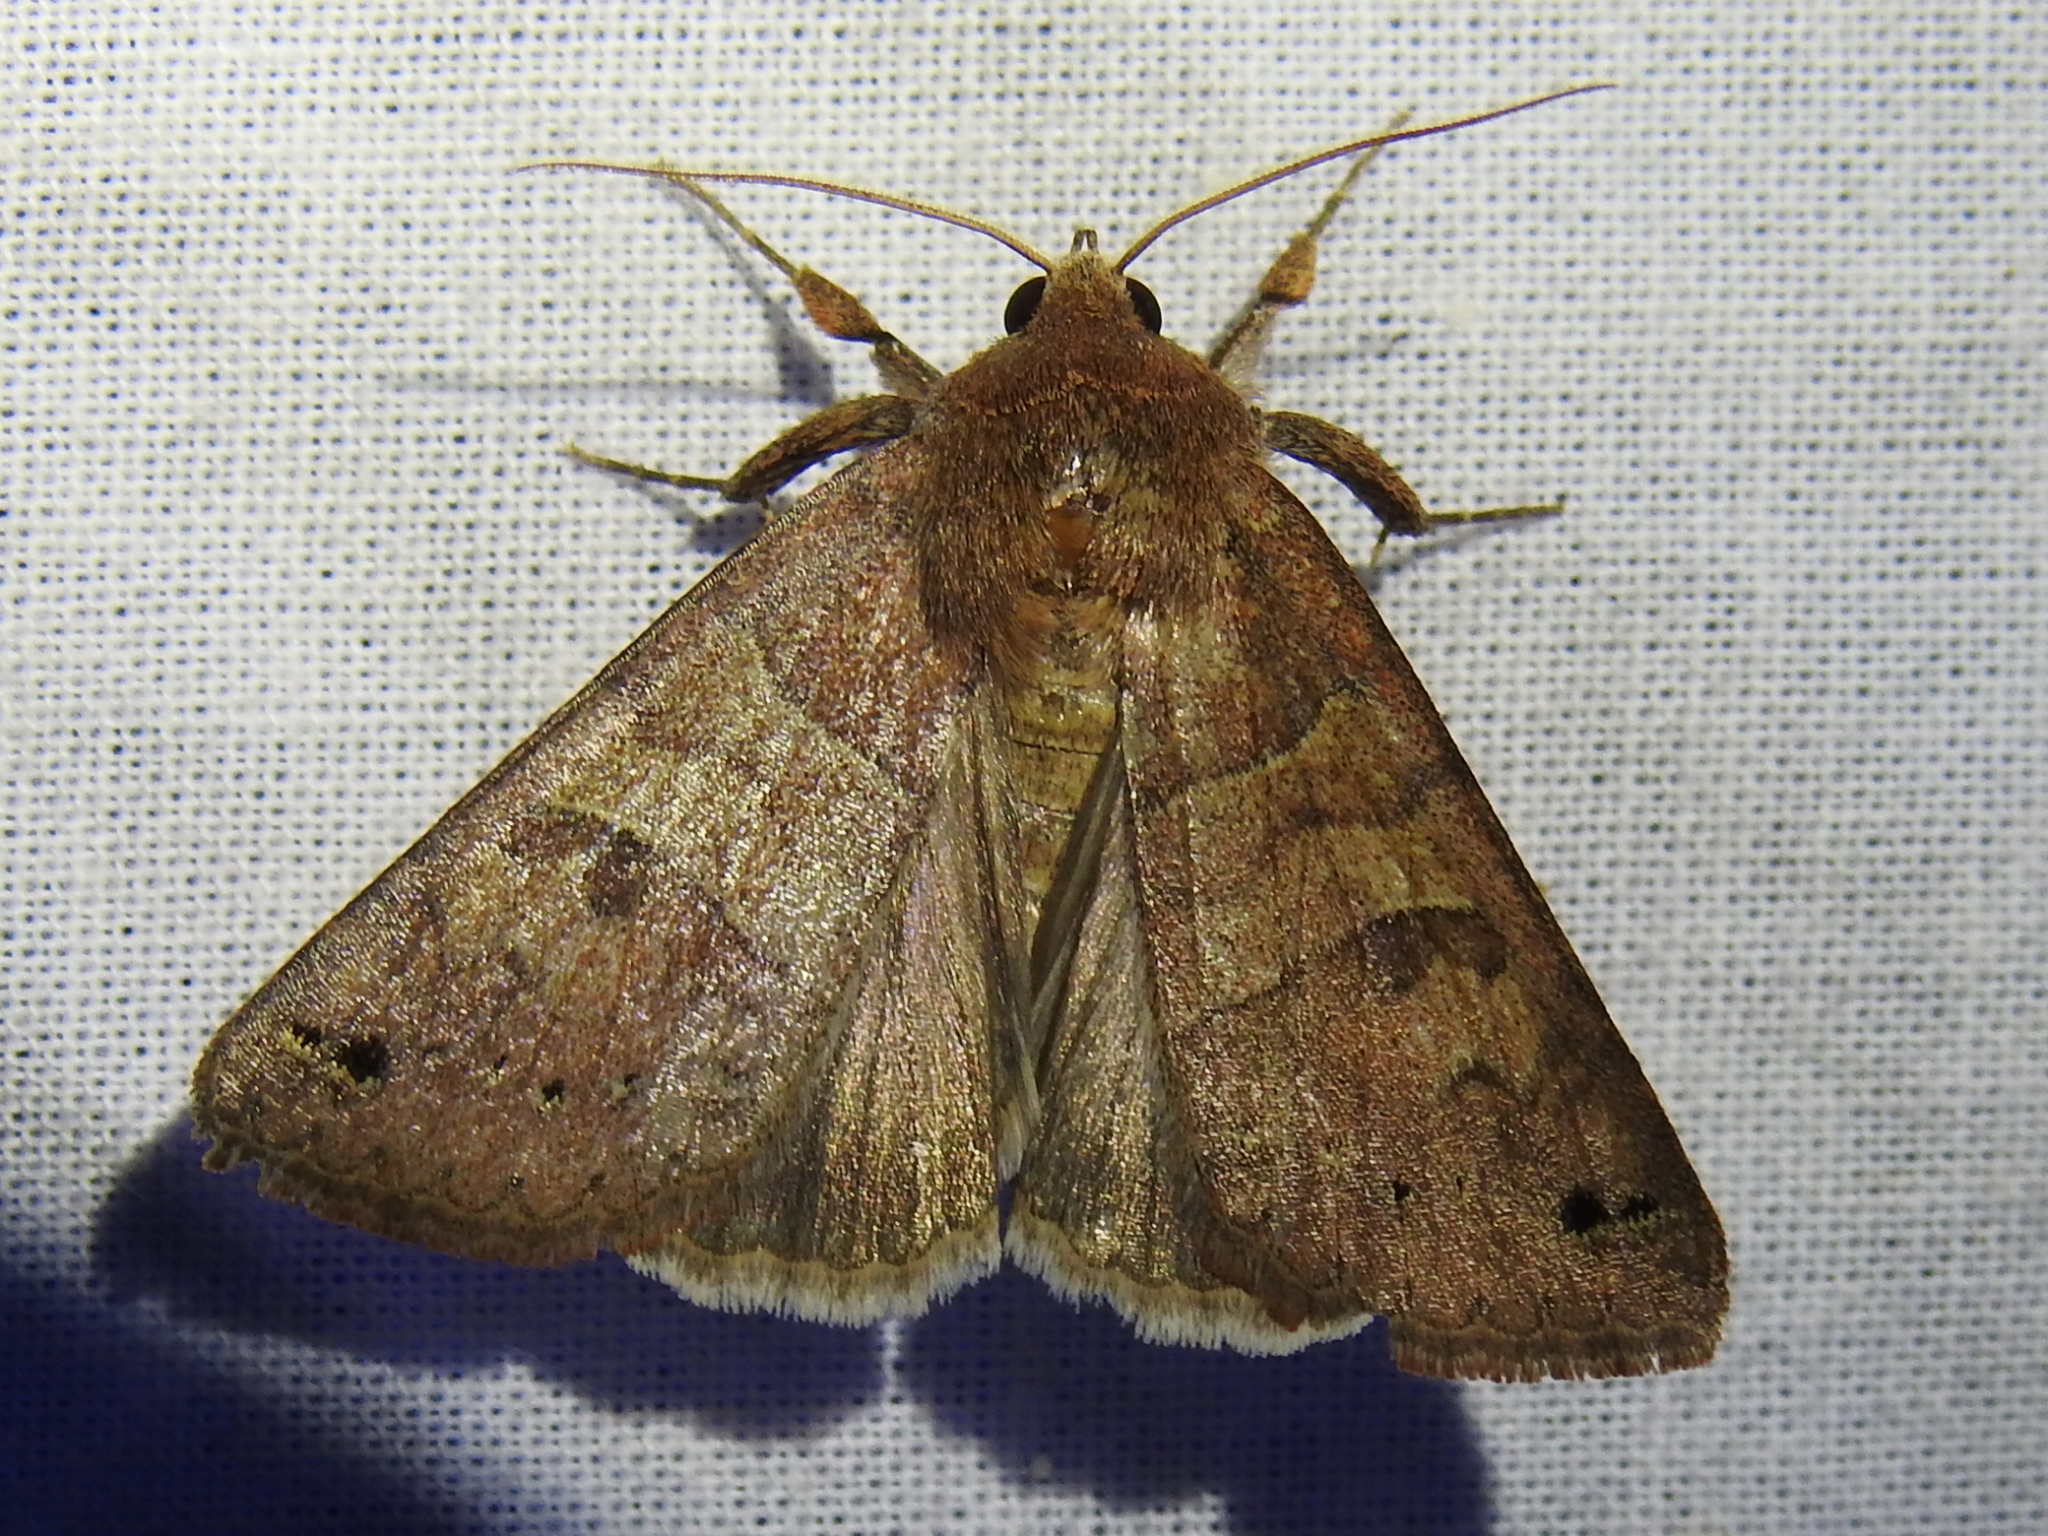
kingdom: Animalia
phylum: Arthropoda
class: Insecta
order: Lepidoptera
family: Erebidae
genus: Cissusa
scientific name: Cissusa spadix
